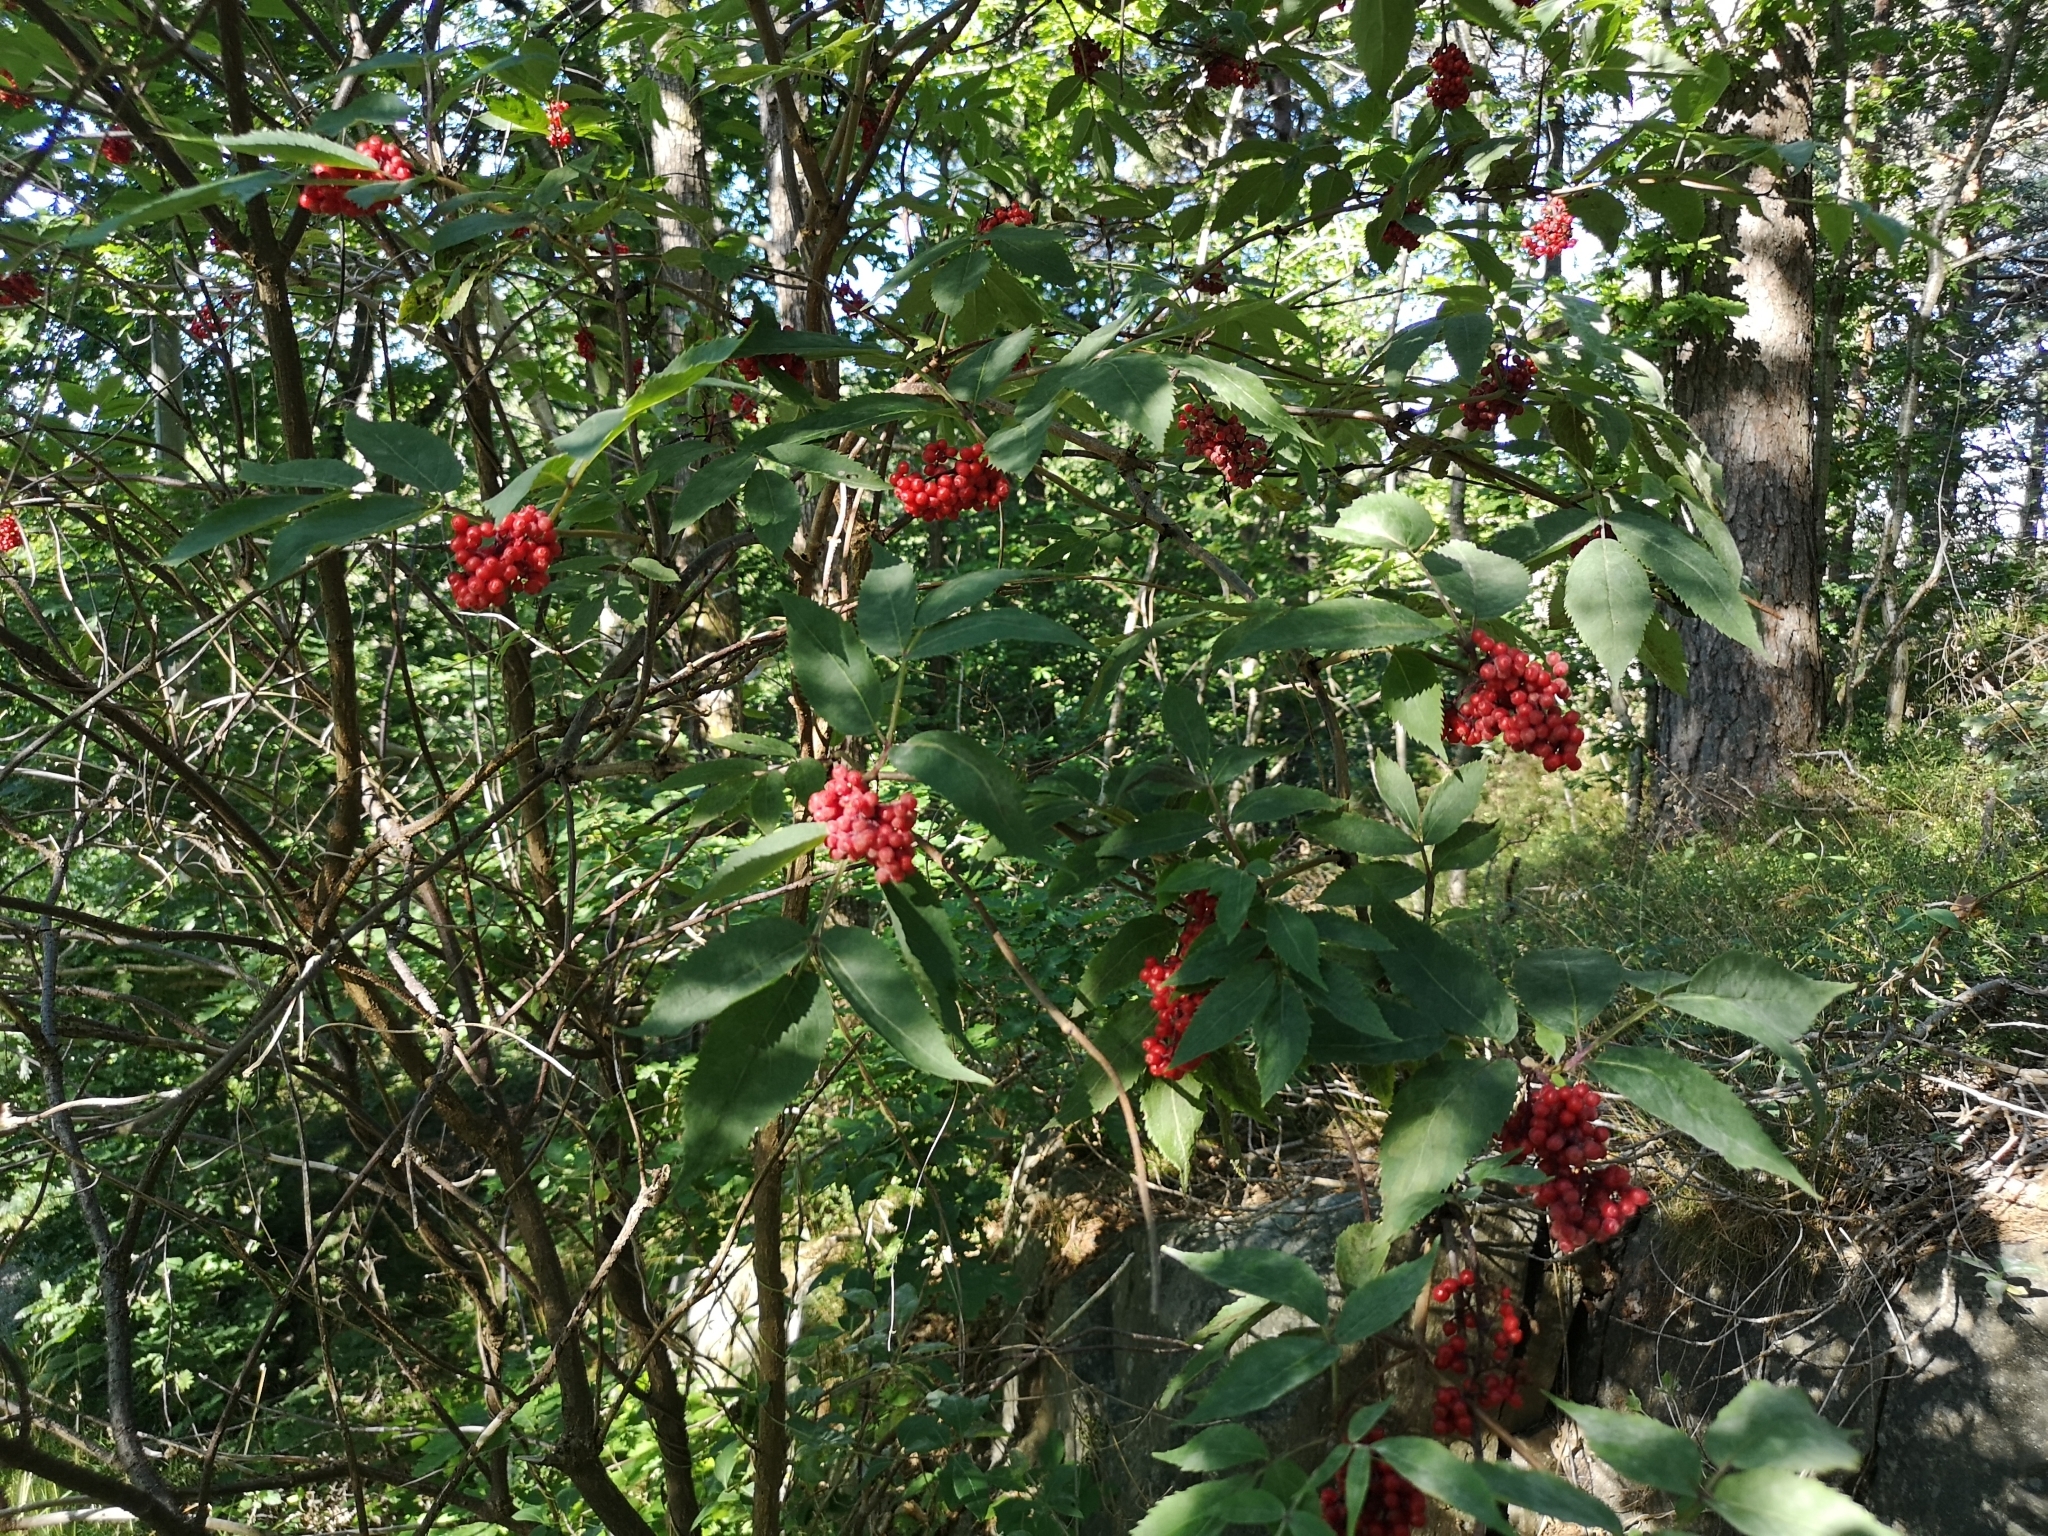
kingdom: Plantae
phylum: Tracheophyta
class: Magnoliopsida
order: Dipsacales
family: Viburnaceae
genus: Sambucus
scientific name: Sambucus racemosa
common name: Red-berried elder
